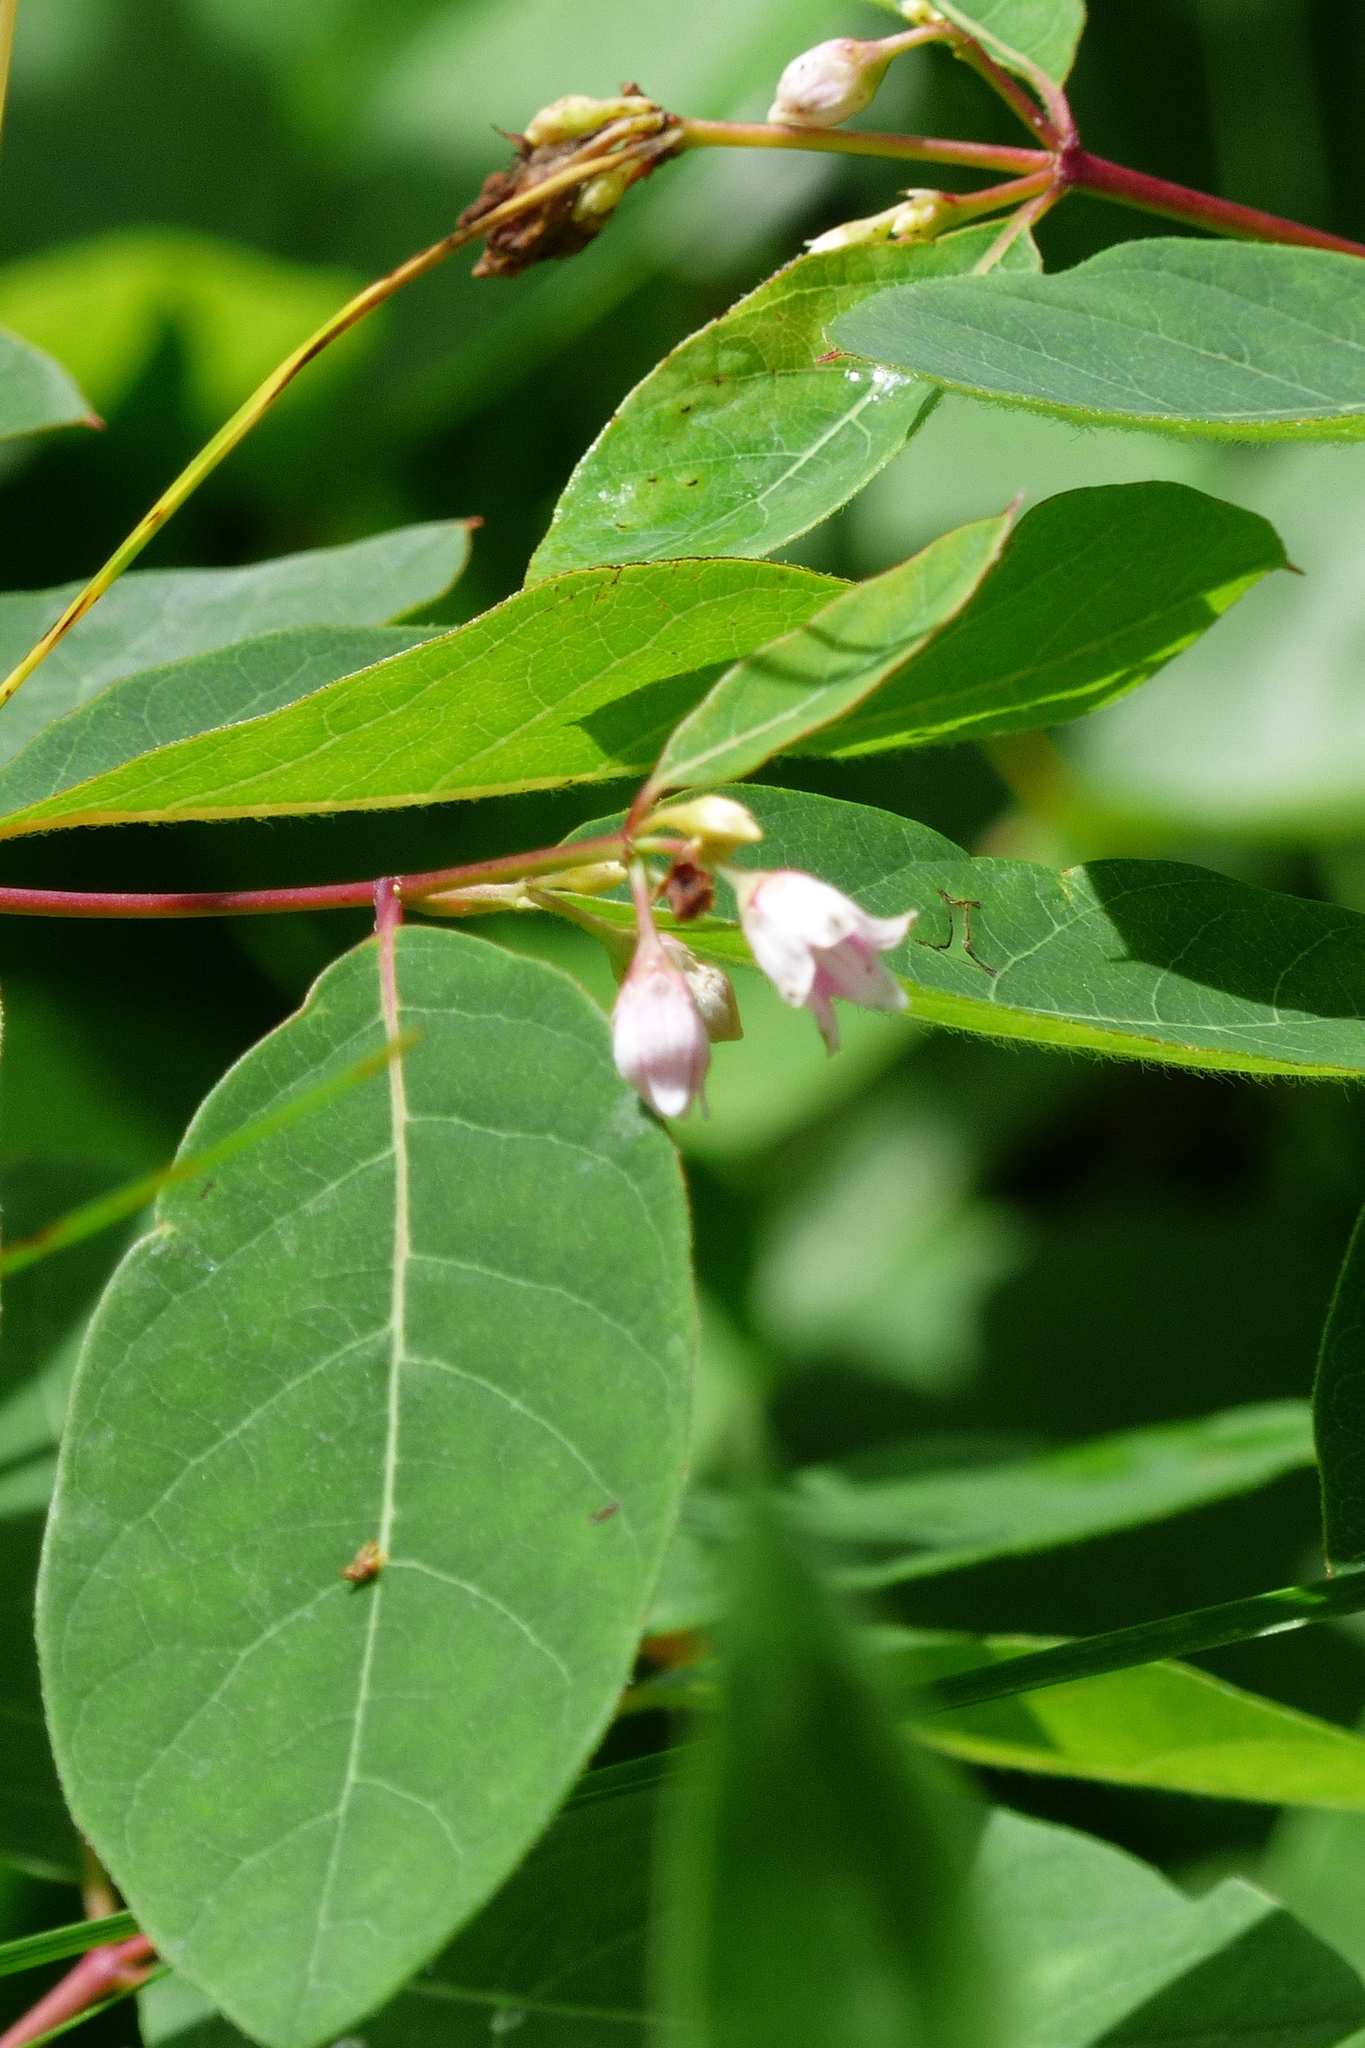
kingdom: Plantae
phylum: Tracheophyta
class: Magnoliopsida
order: Gentianales
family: Apocynaceae
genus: Apocynum
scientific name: Apocynum androsaemifolium
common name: Spreading dogbane
